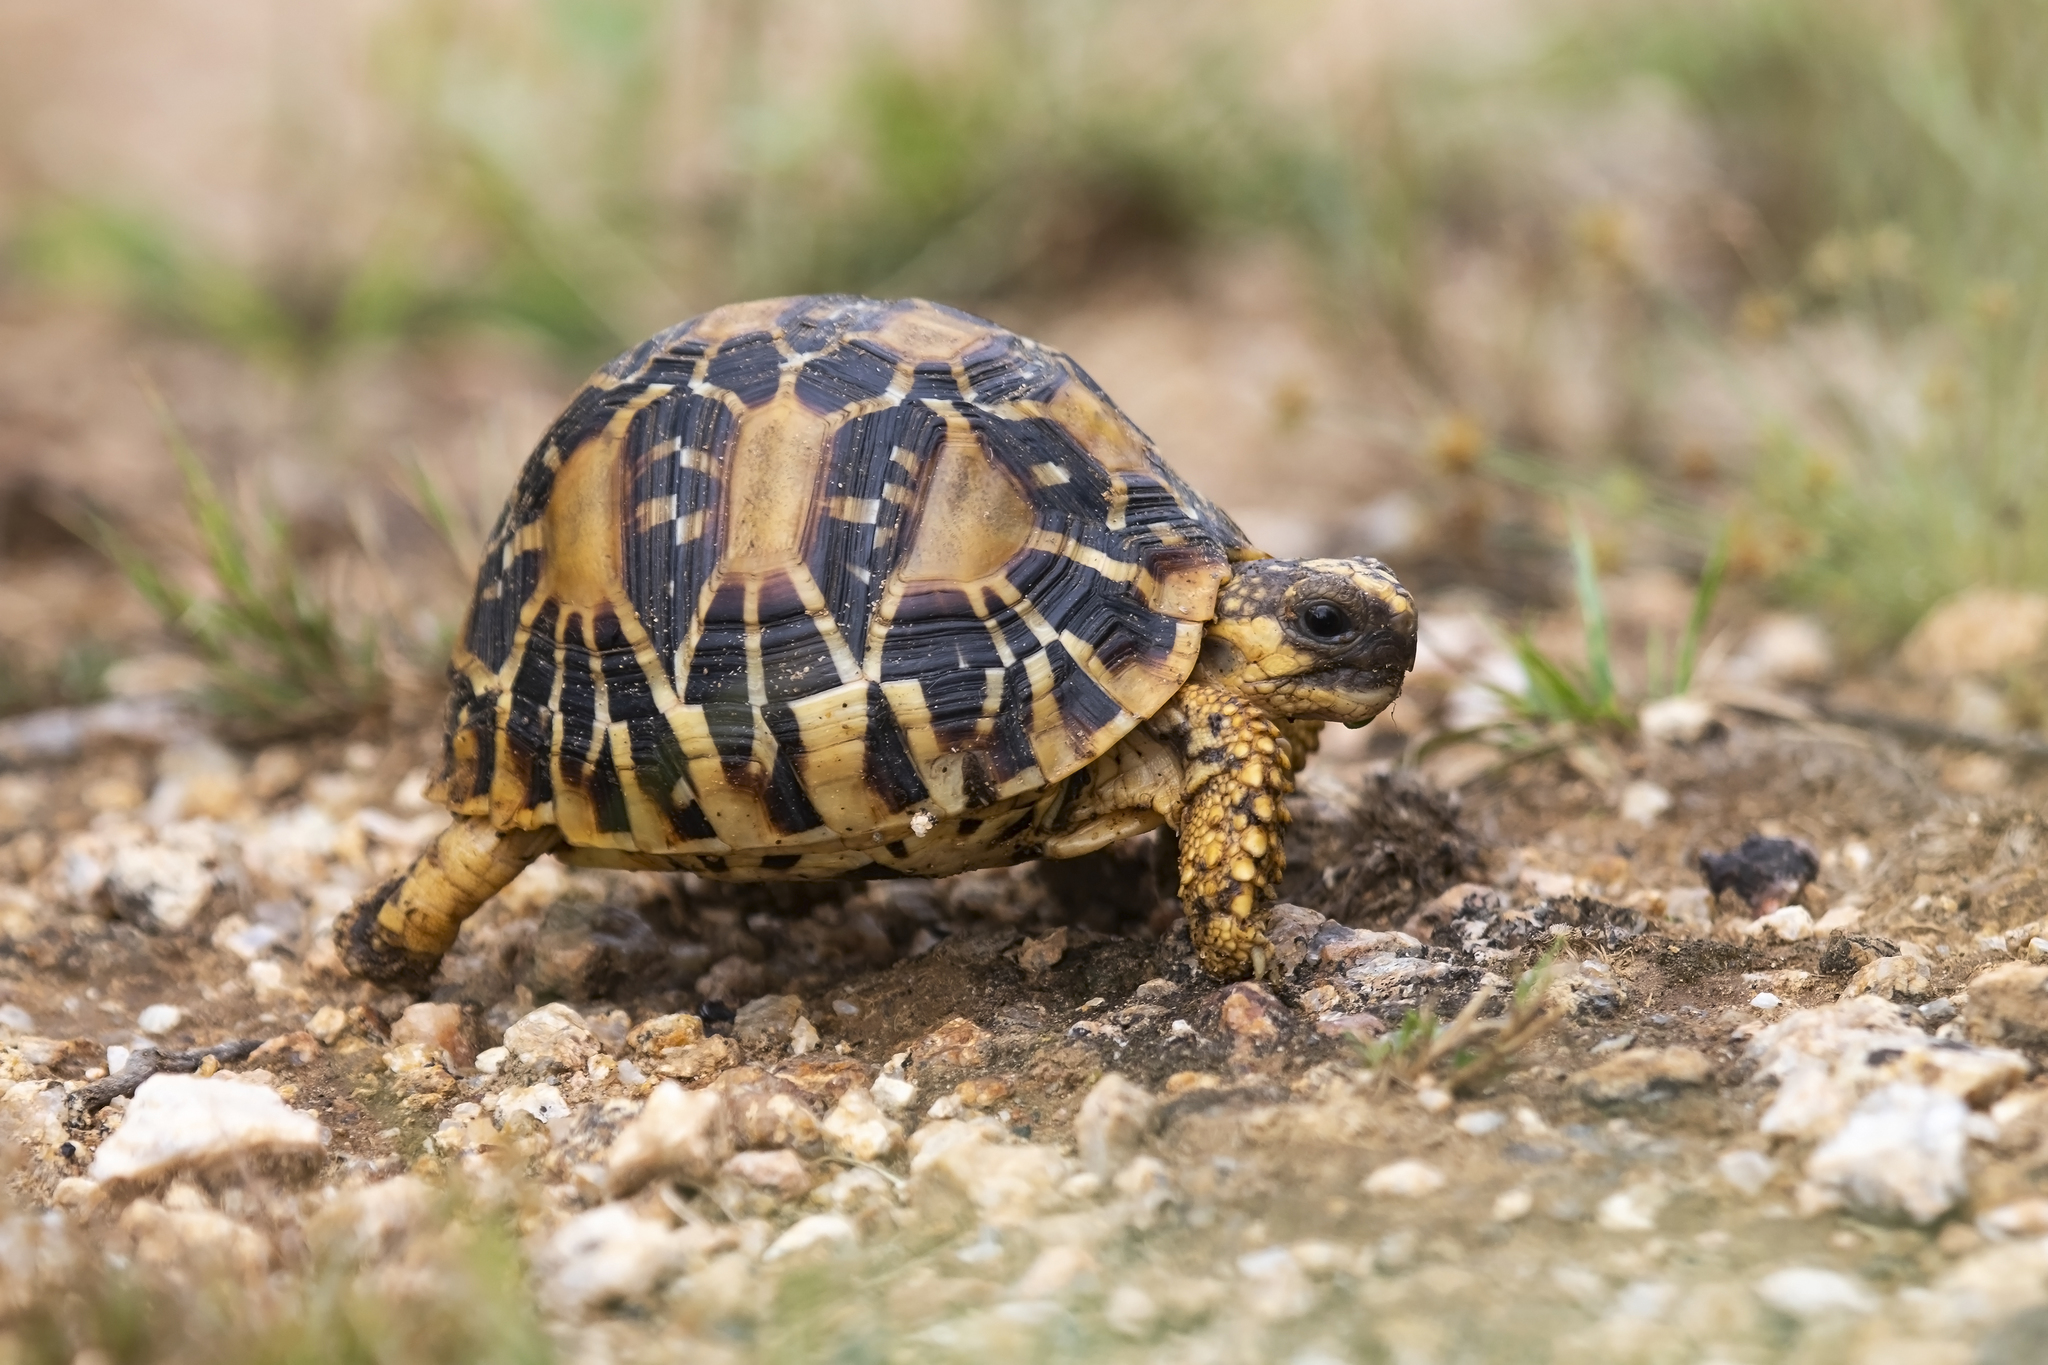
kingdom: Animalia
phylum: Chordata
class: Testudines
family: Testudinidae
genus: Geochelone
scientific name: Geochelone elegans
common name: Indian star tortoise
